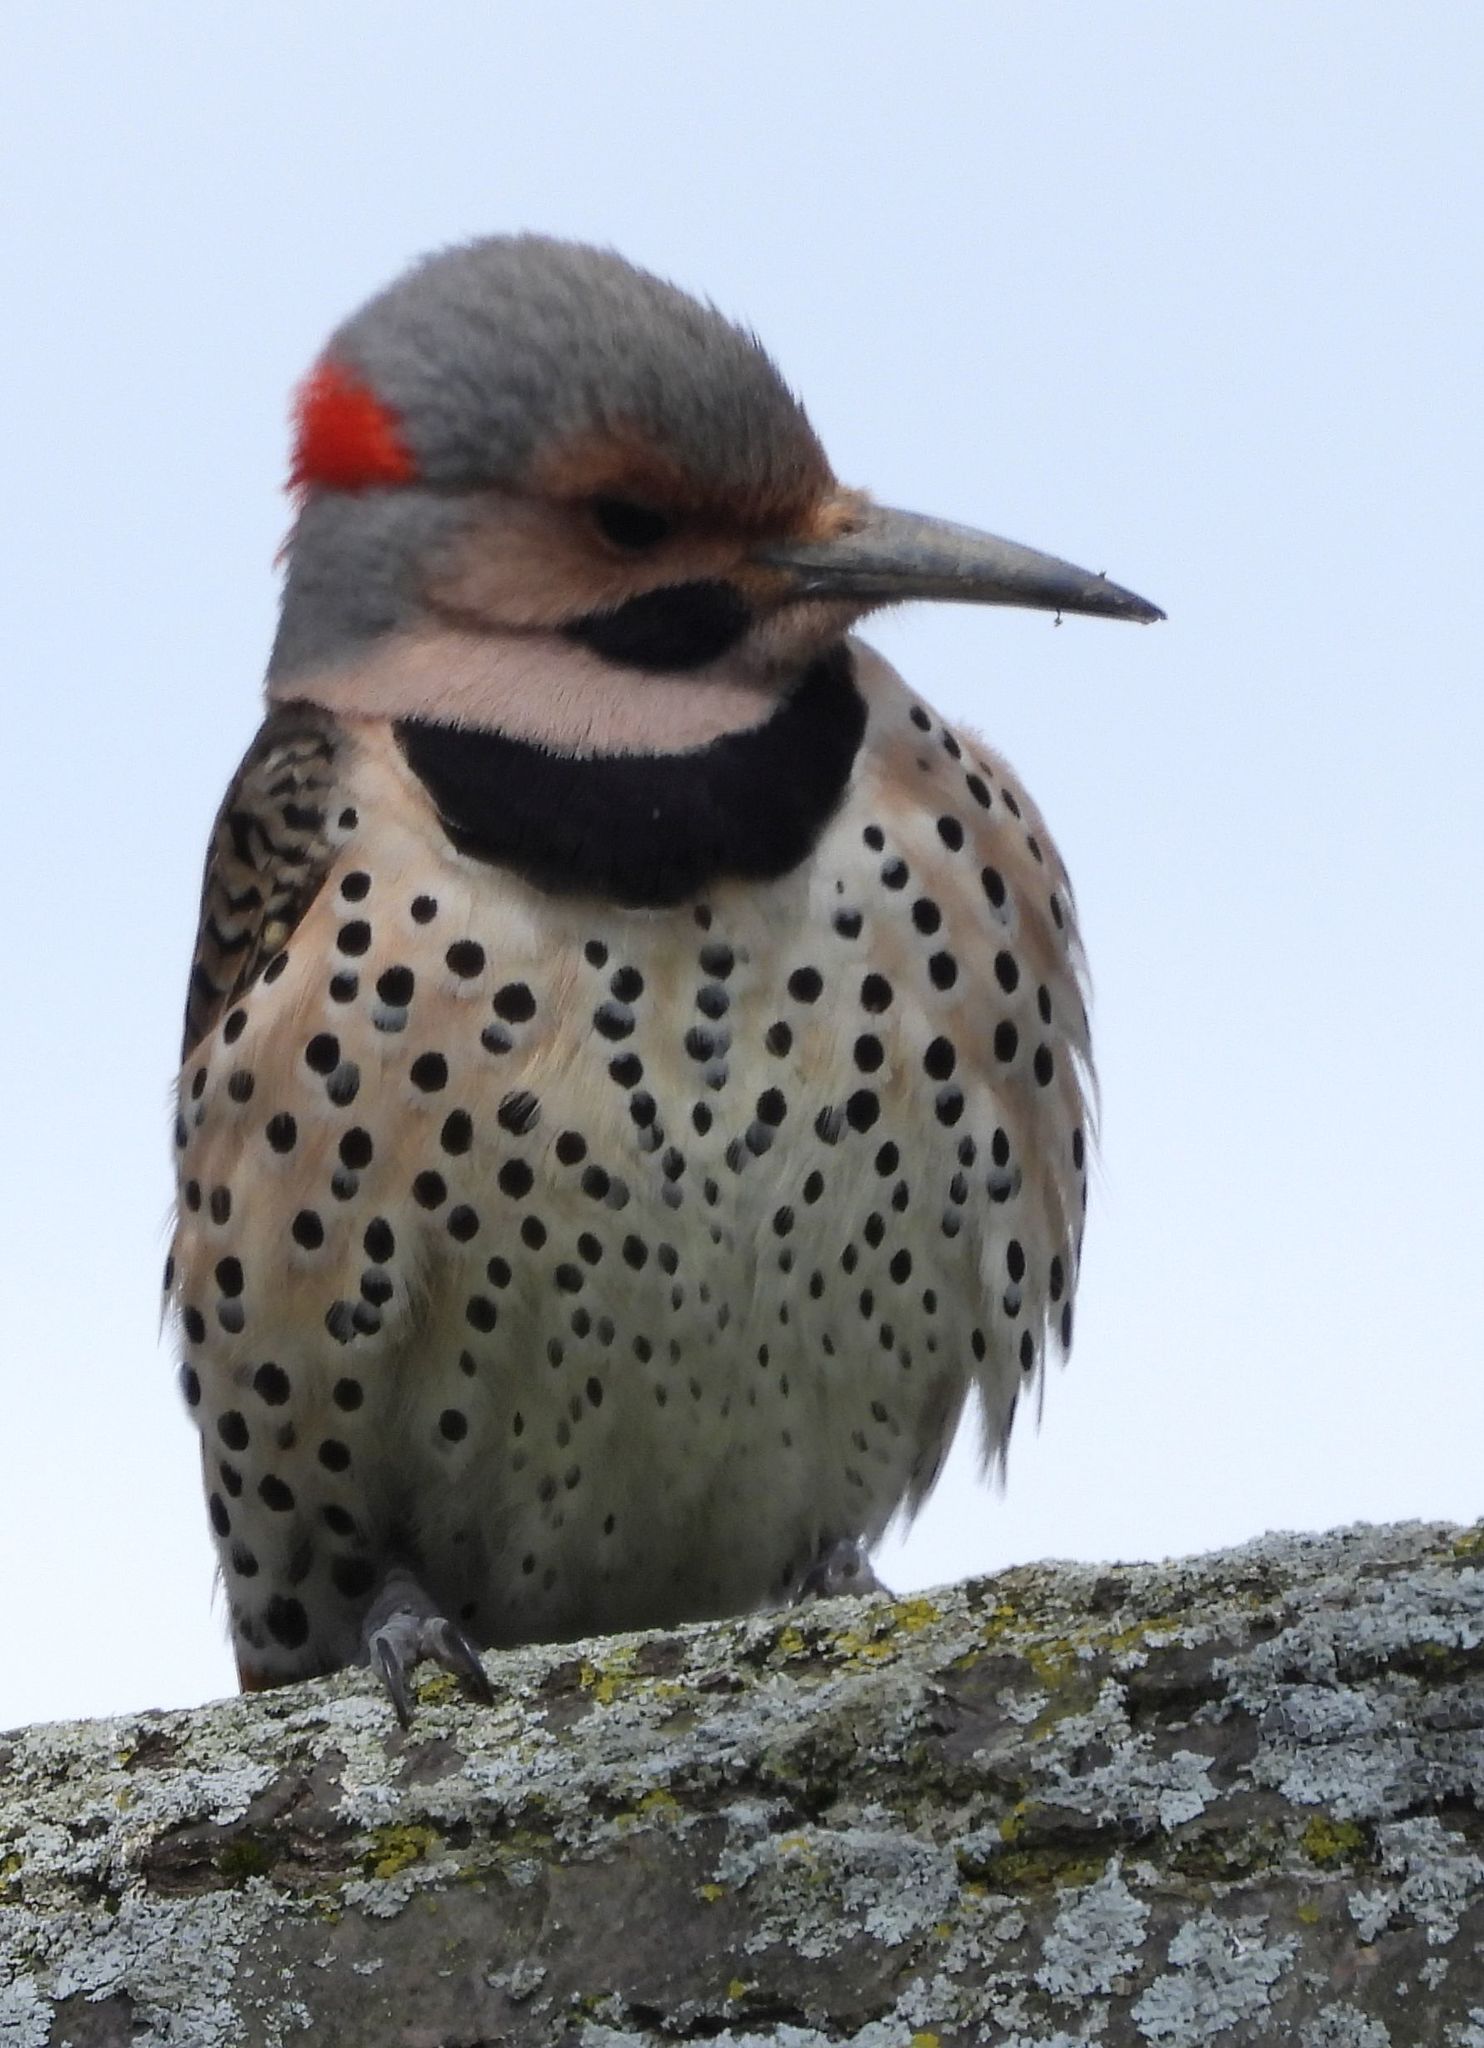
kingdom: Animalia
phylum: Chordata
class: Aves
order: Piciformes
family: Picidae
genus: Colaptes
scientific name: Colaptes auratus
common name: Northern flicker
